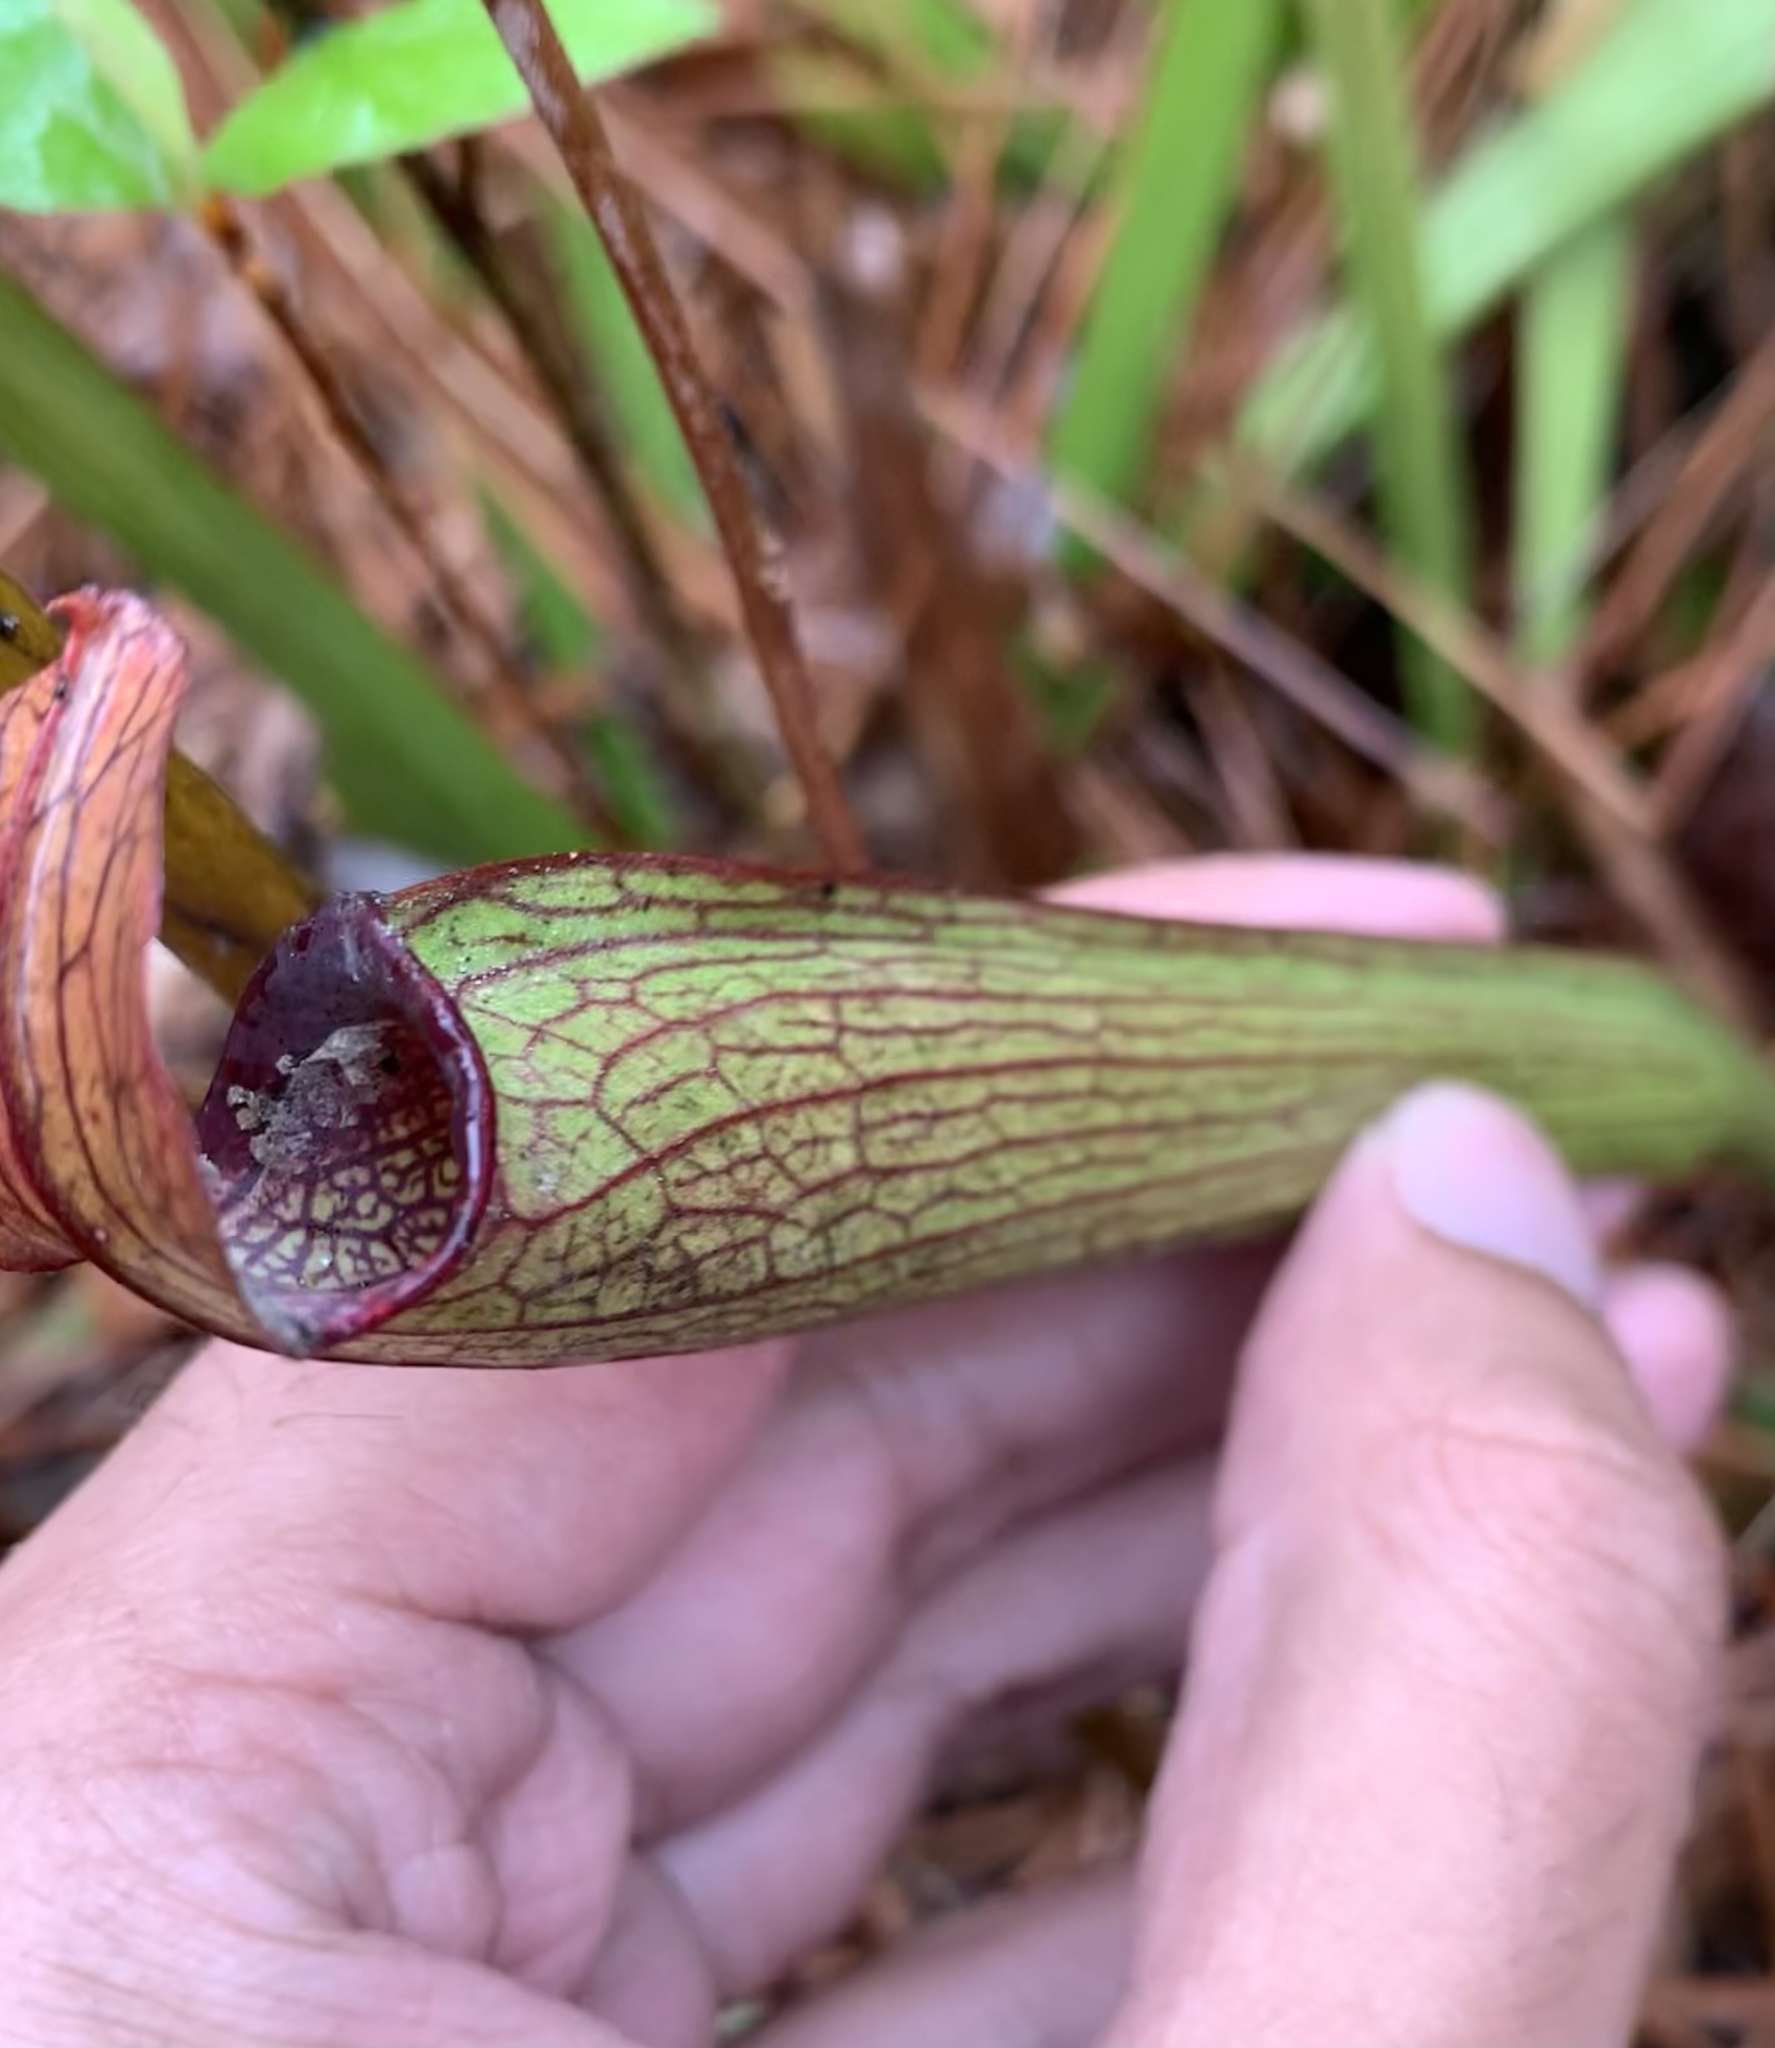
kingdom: Plantae
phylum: Tracheophyta
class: Magnoliopsida
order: Ericales
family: Sarraceniaceae
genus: Sarracenia
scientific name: Sarracenia rubra
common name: Sweet pitcherplant
